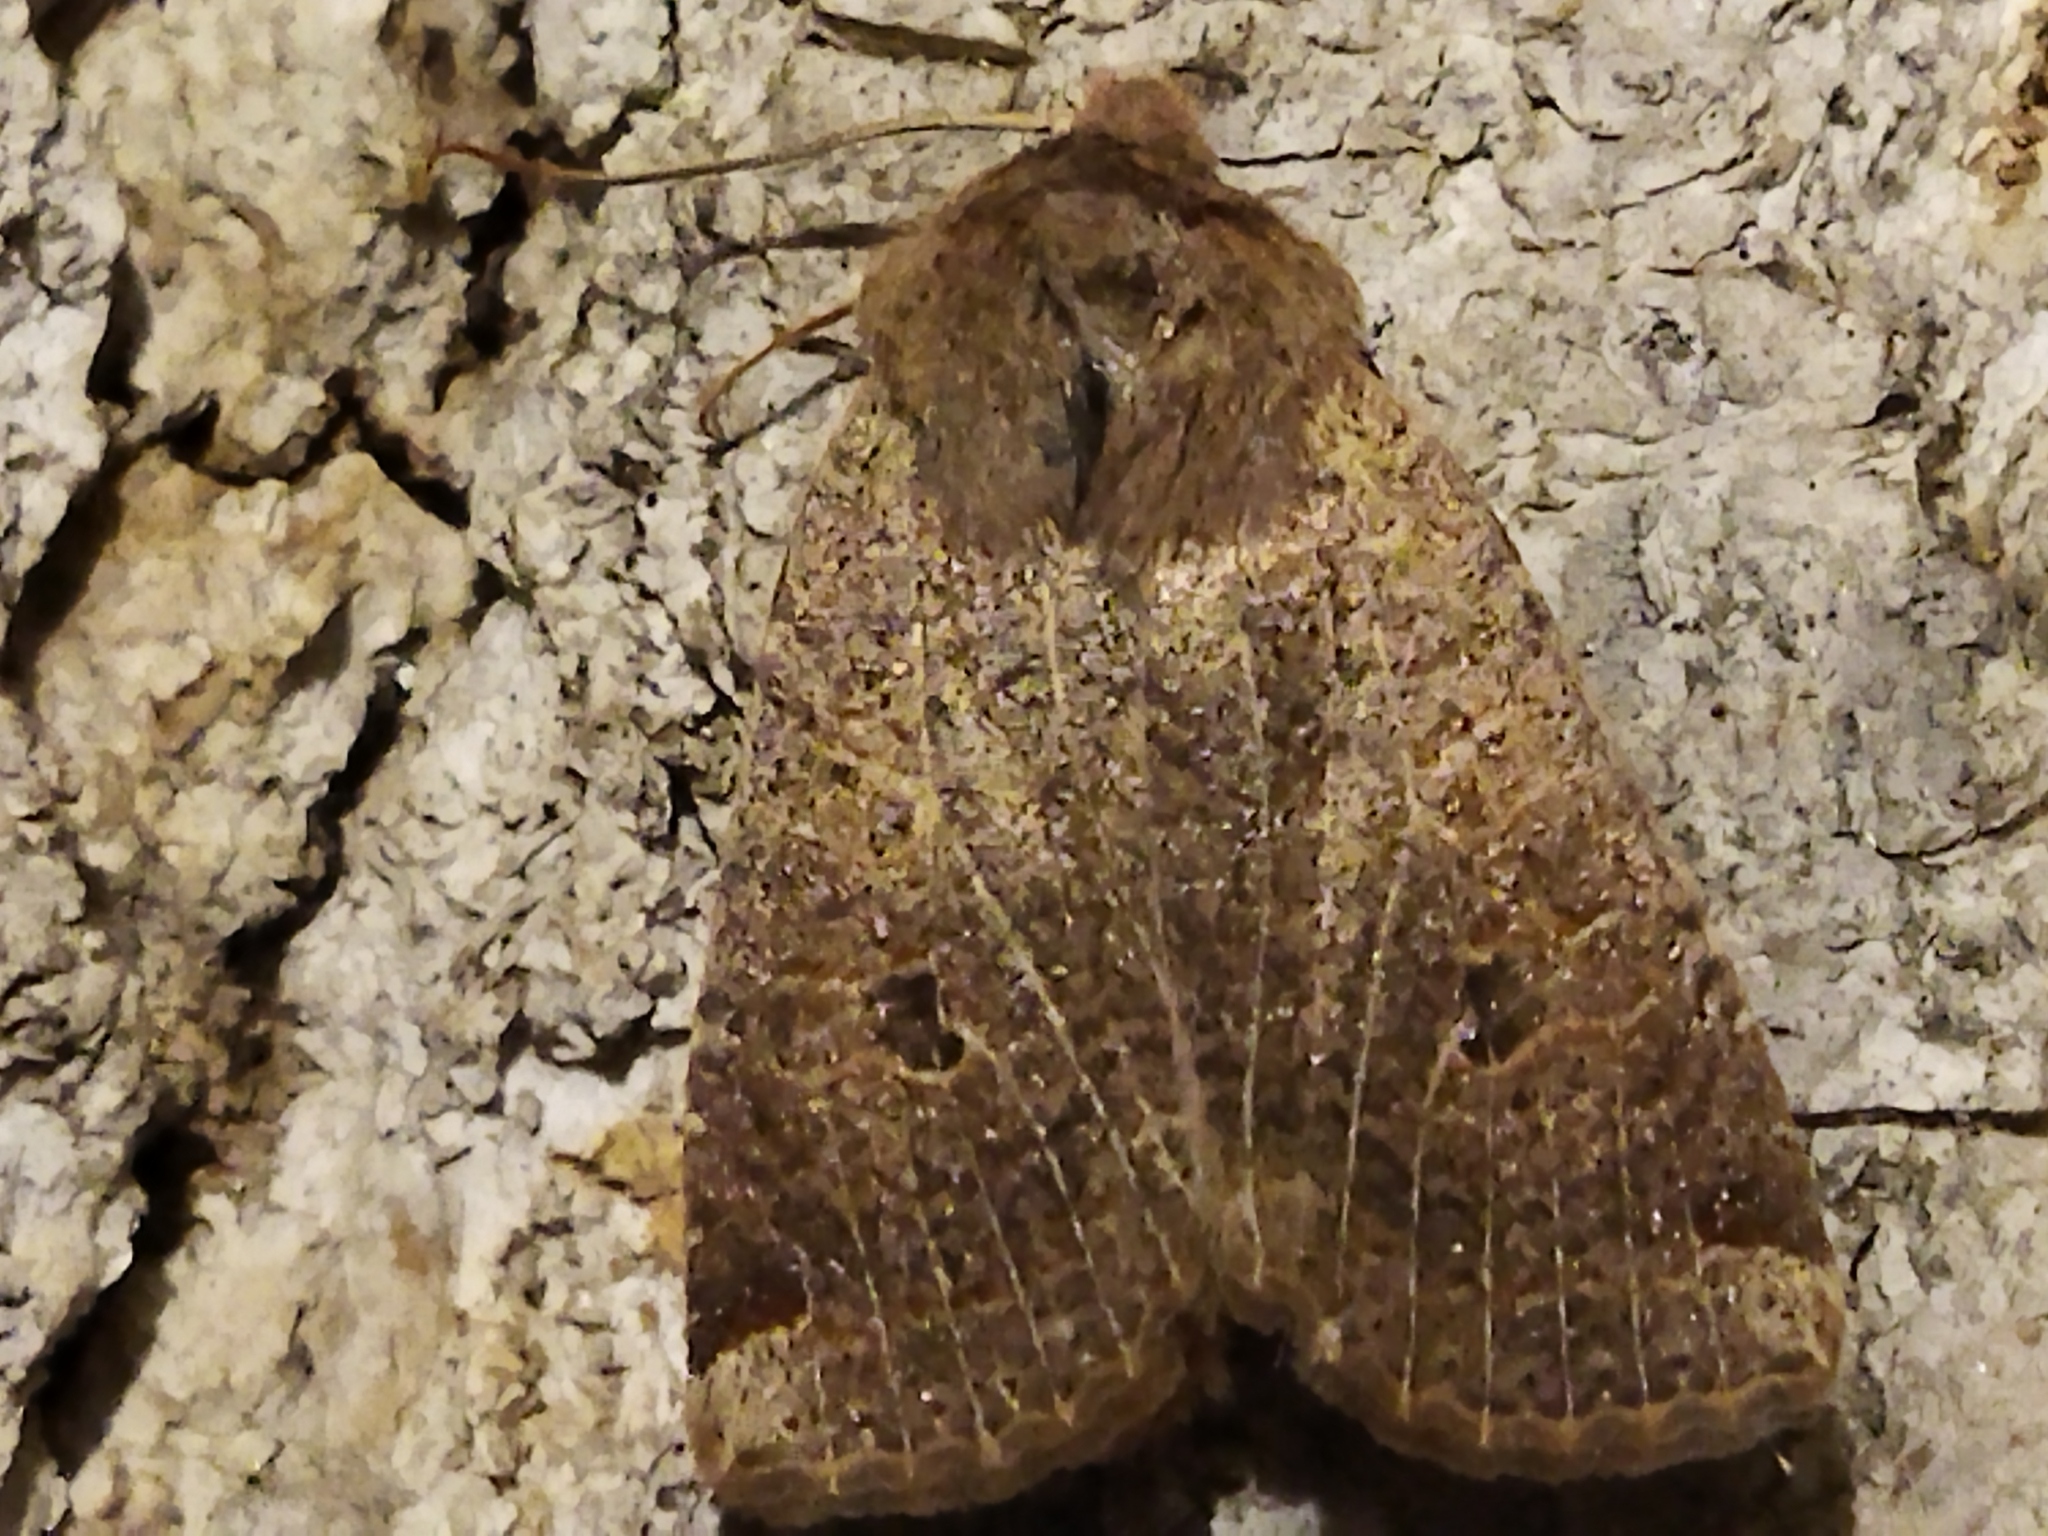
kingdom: Animalia
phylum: Arthropoda
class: Insecta
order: Lepidoptera
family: Noctuidae
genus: Conistra
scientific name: Conistra veronicae
